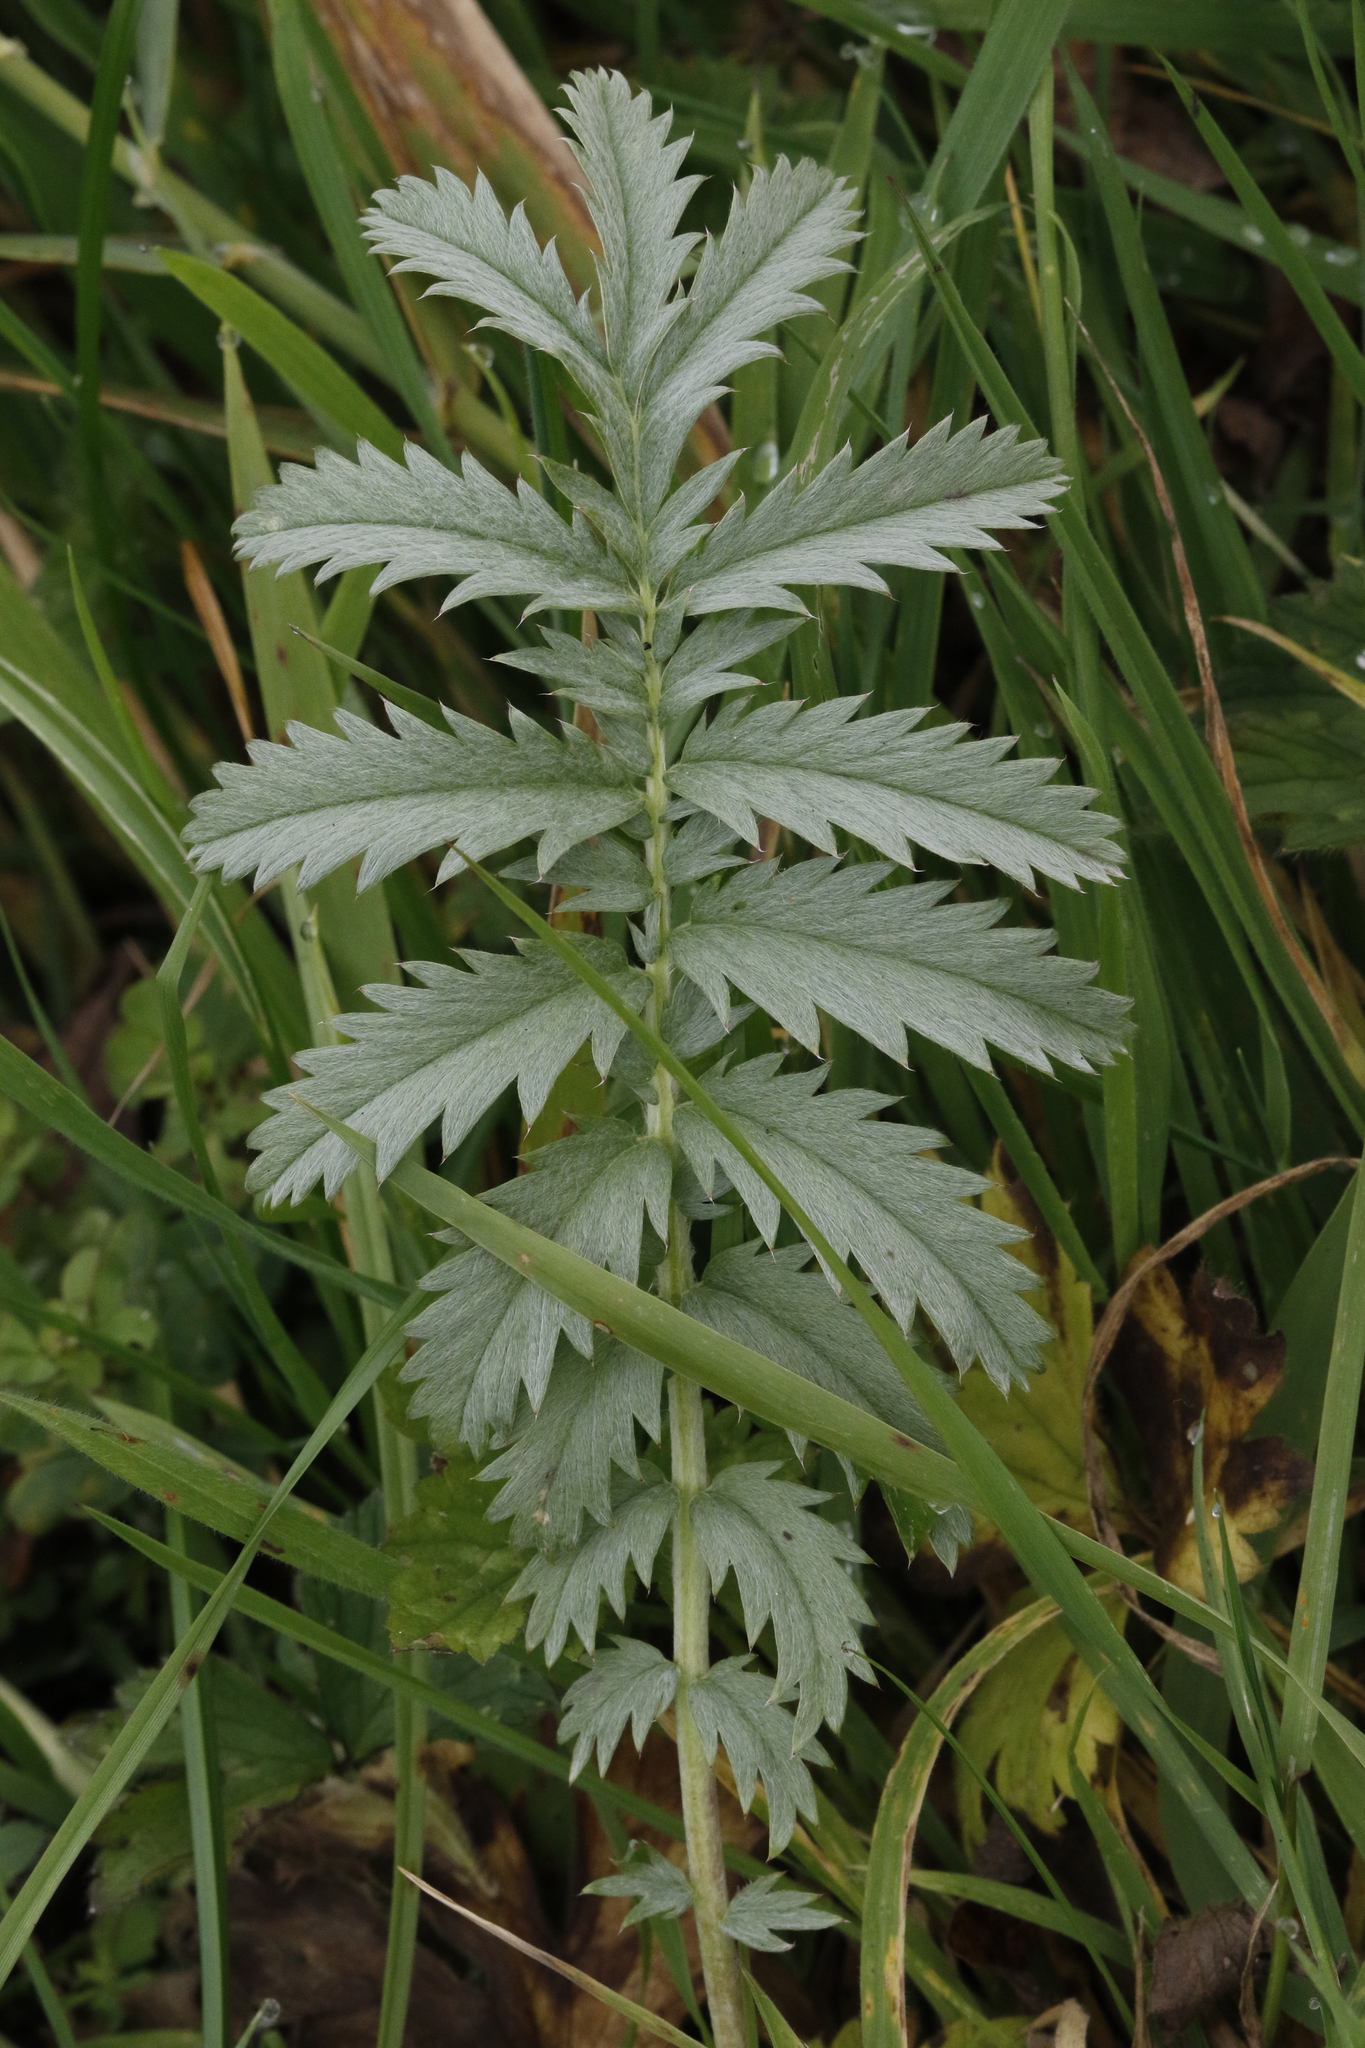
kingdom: Plantae
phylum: Tracheophyta
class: Magnoliopsida
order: Rosales
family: Rosaceae
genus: Argentina
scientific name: Argentina anserina
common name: Common silverweed
